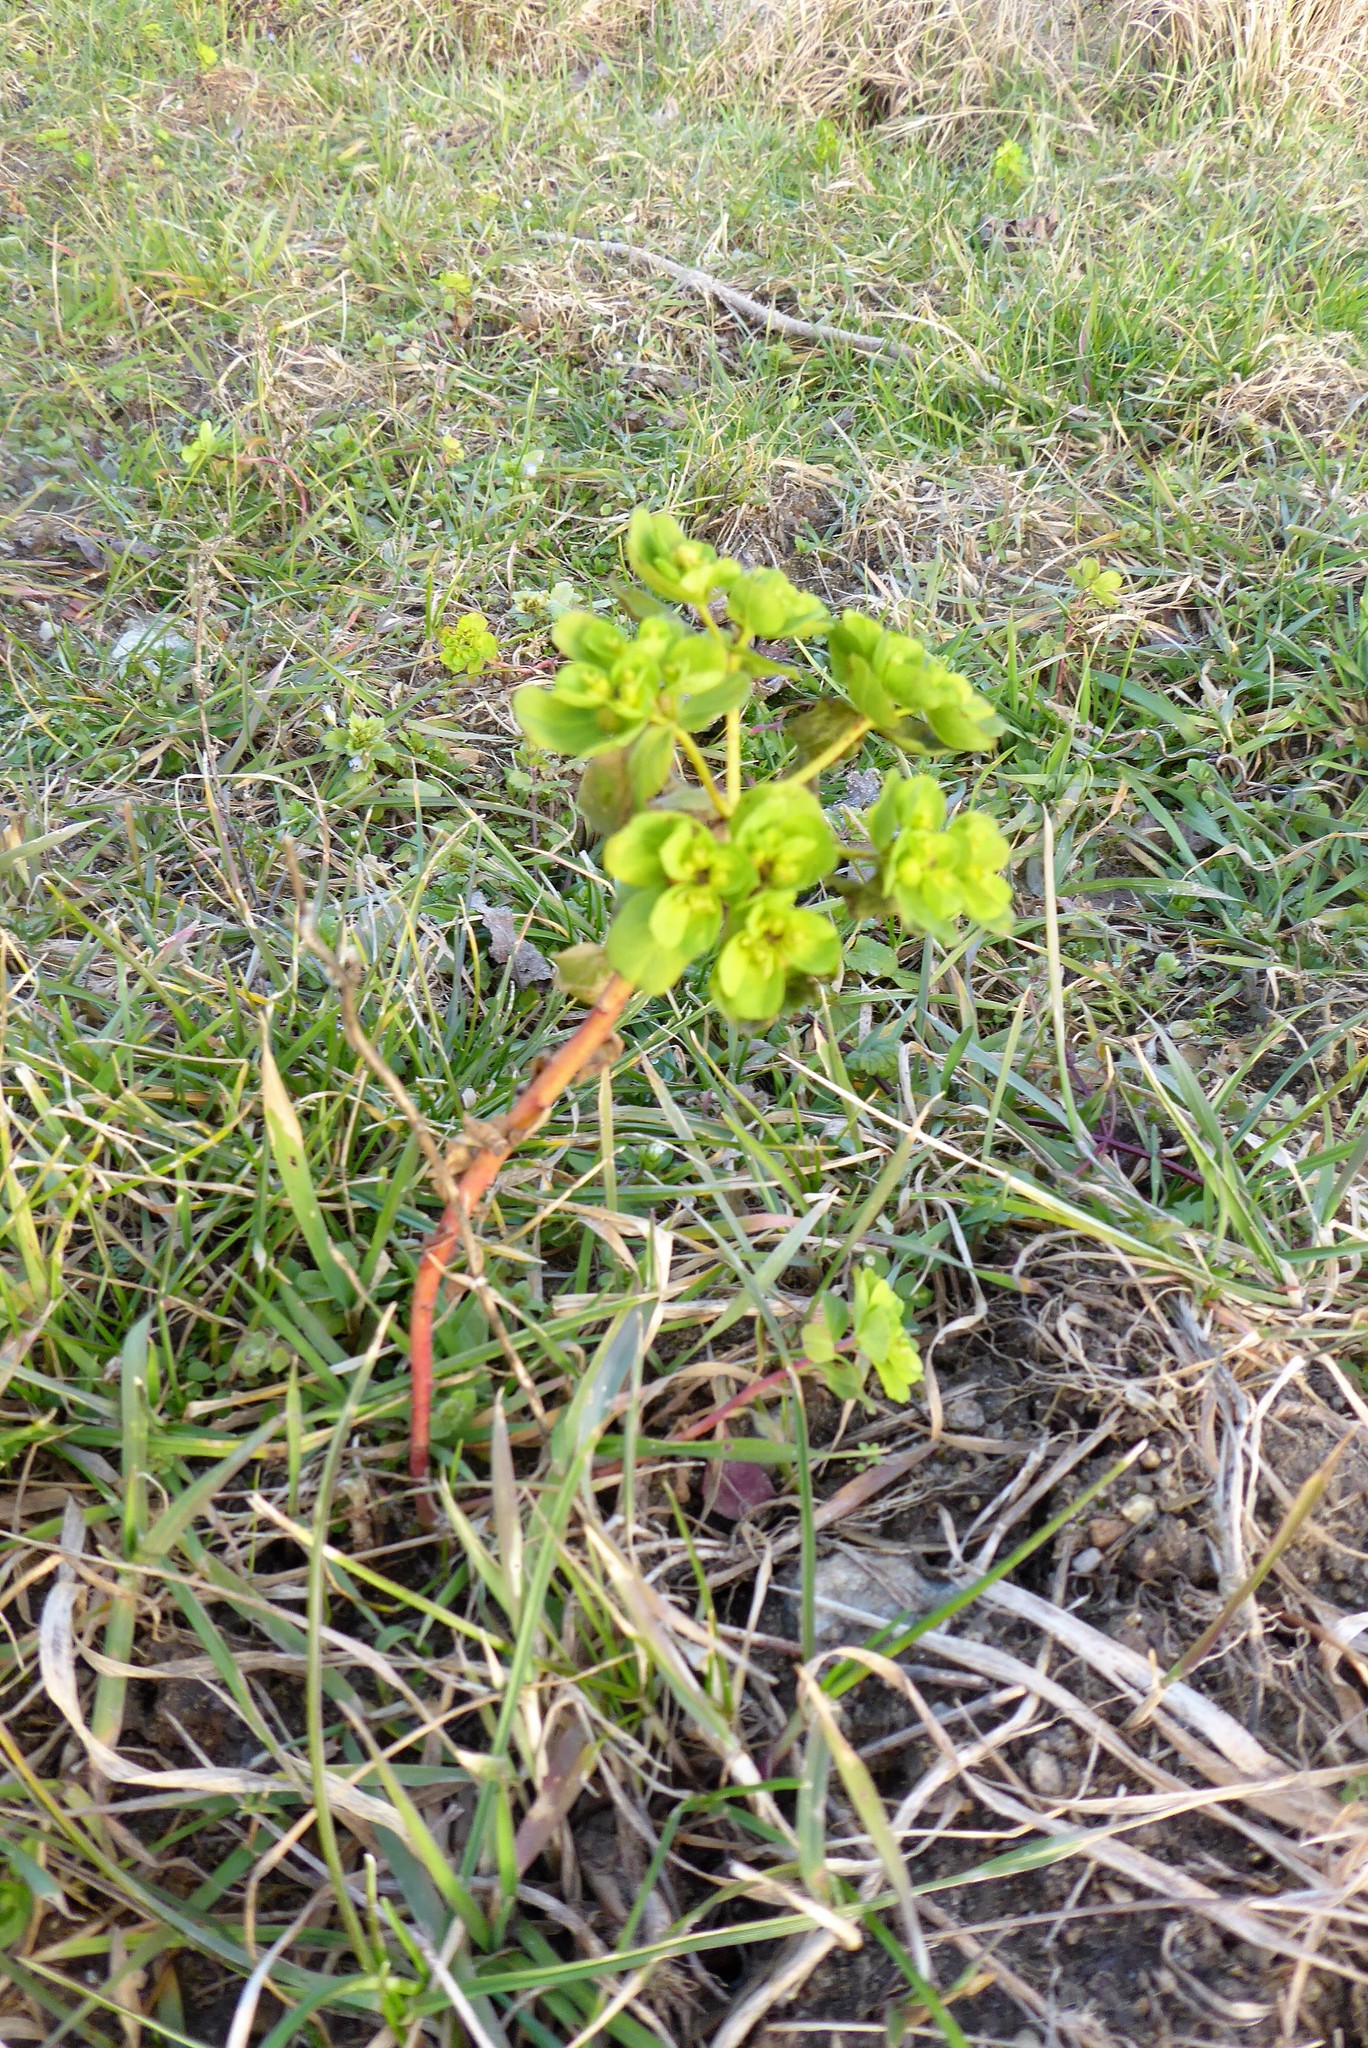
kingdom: Plantae
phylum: Tracheophyta
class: Magnoliopsida
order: Malpighiales
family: Euphorbiaceae
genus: Euphorbia
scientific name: Euphorbia helioscopia
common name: Sun spurge
